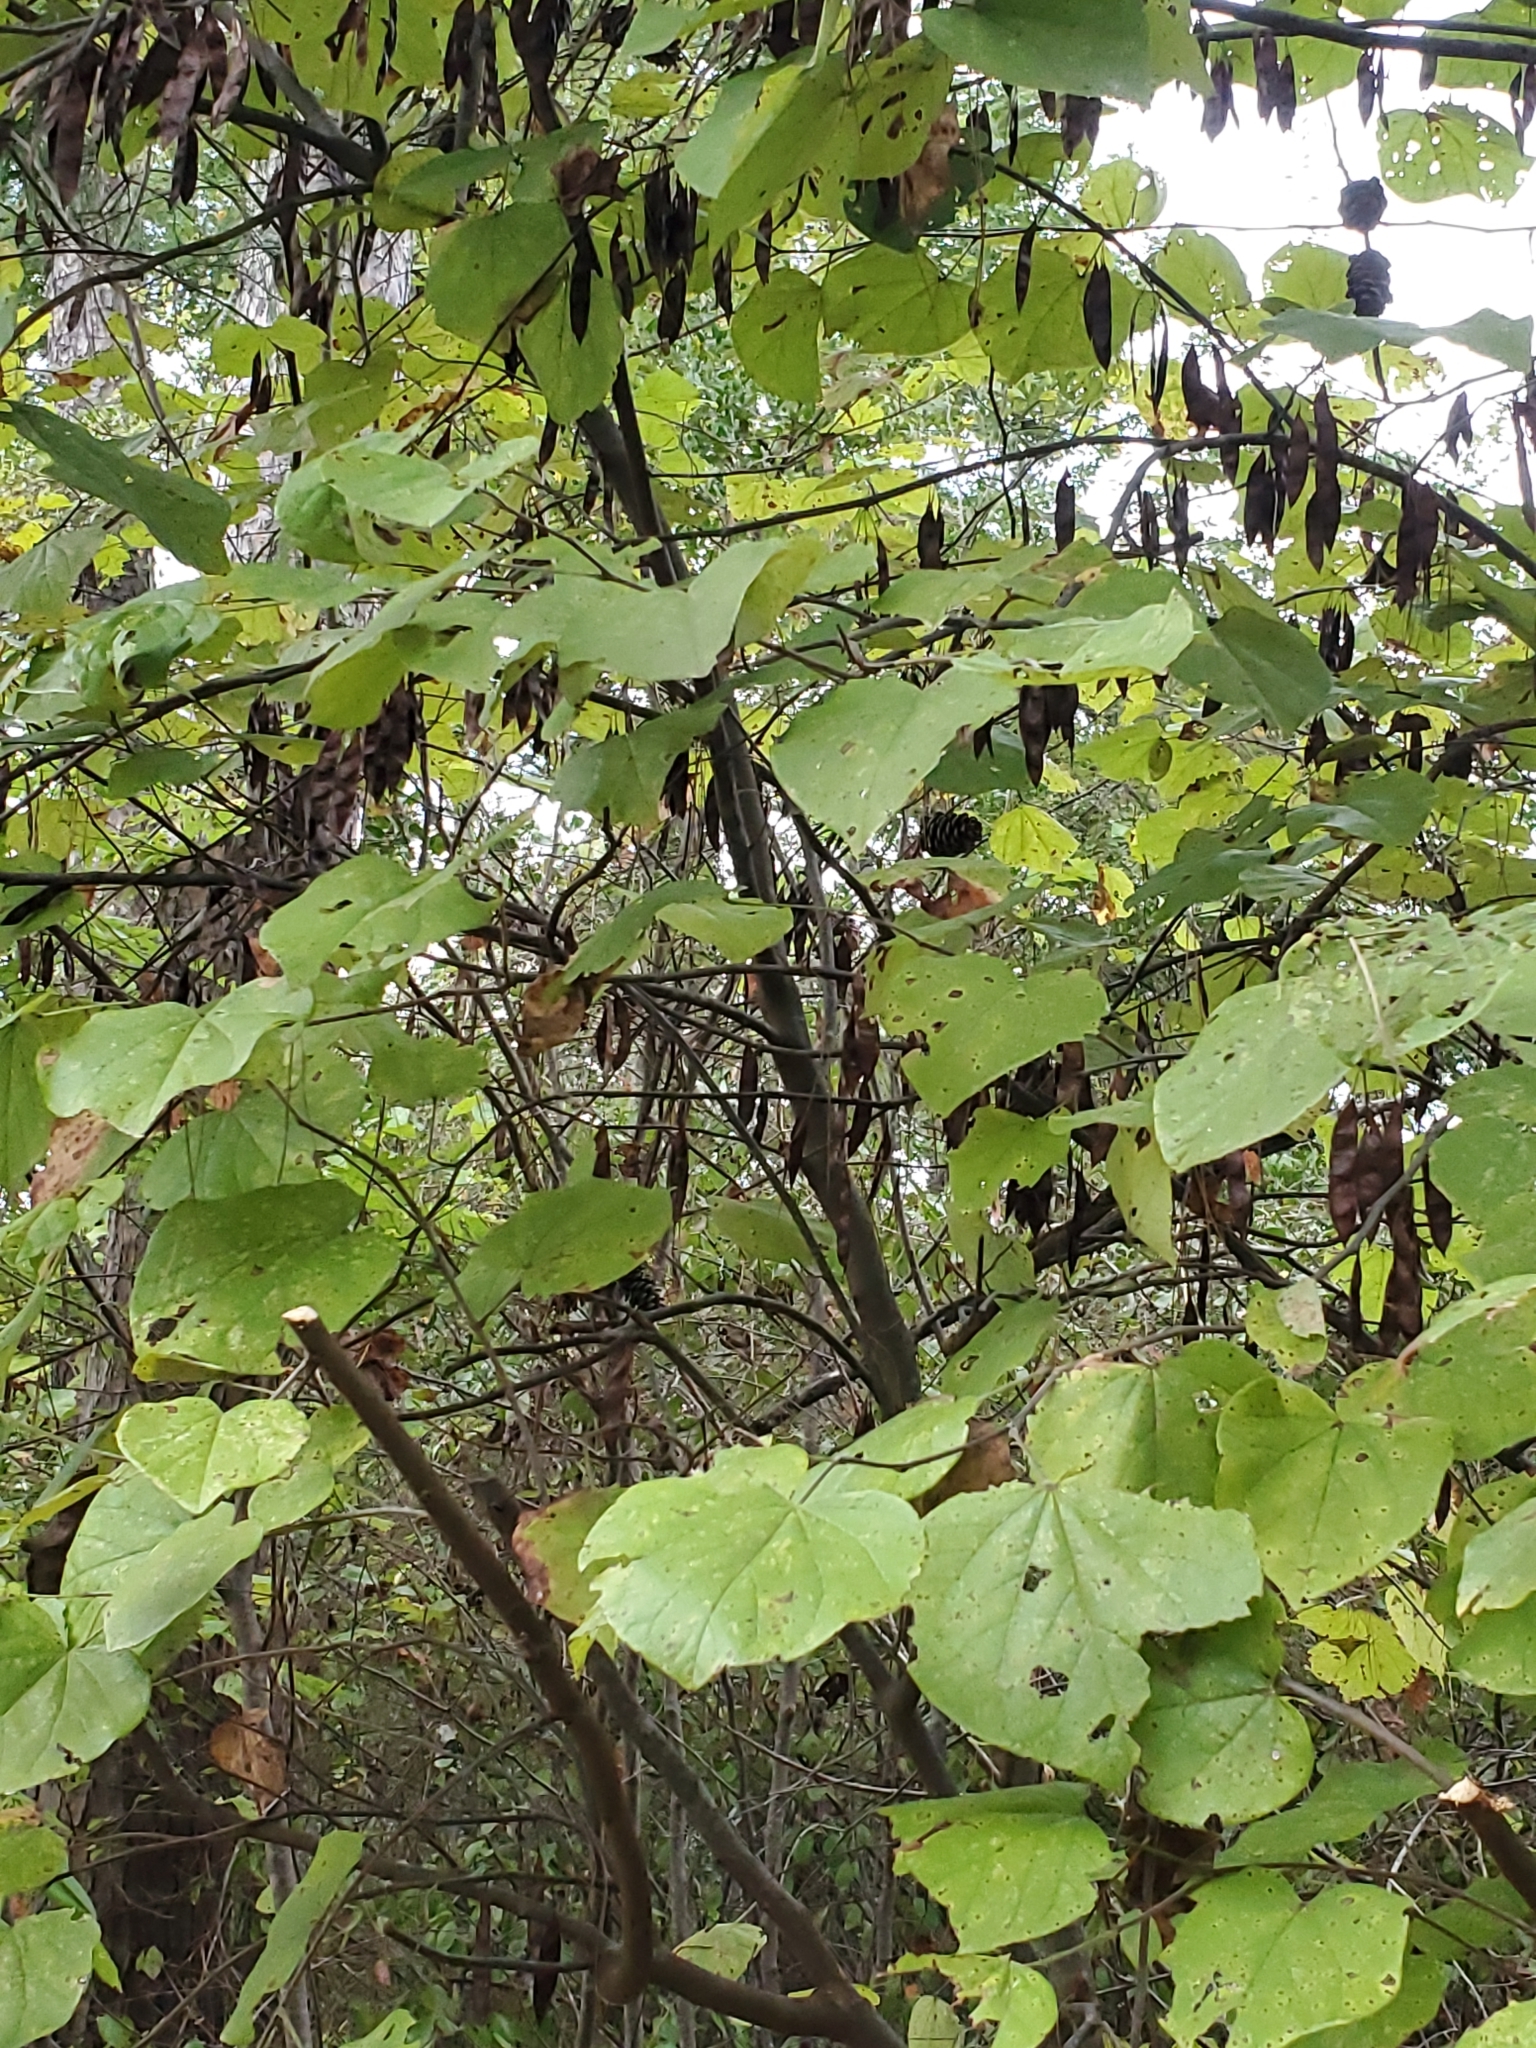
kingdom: Plantae
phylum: Tracheophyta
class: Magnoliopsida
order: Fabales
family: Fabaceae
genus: Cercis
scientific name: Cercis canadensis
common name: Eastern redbud
